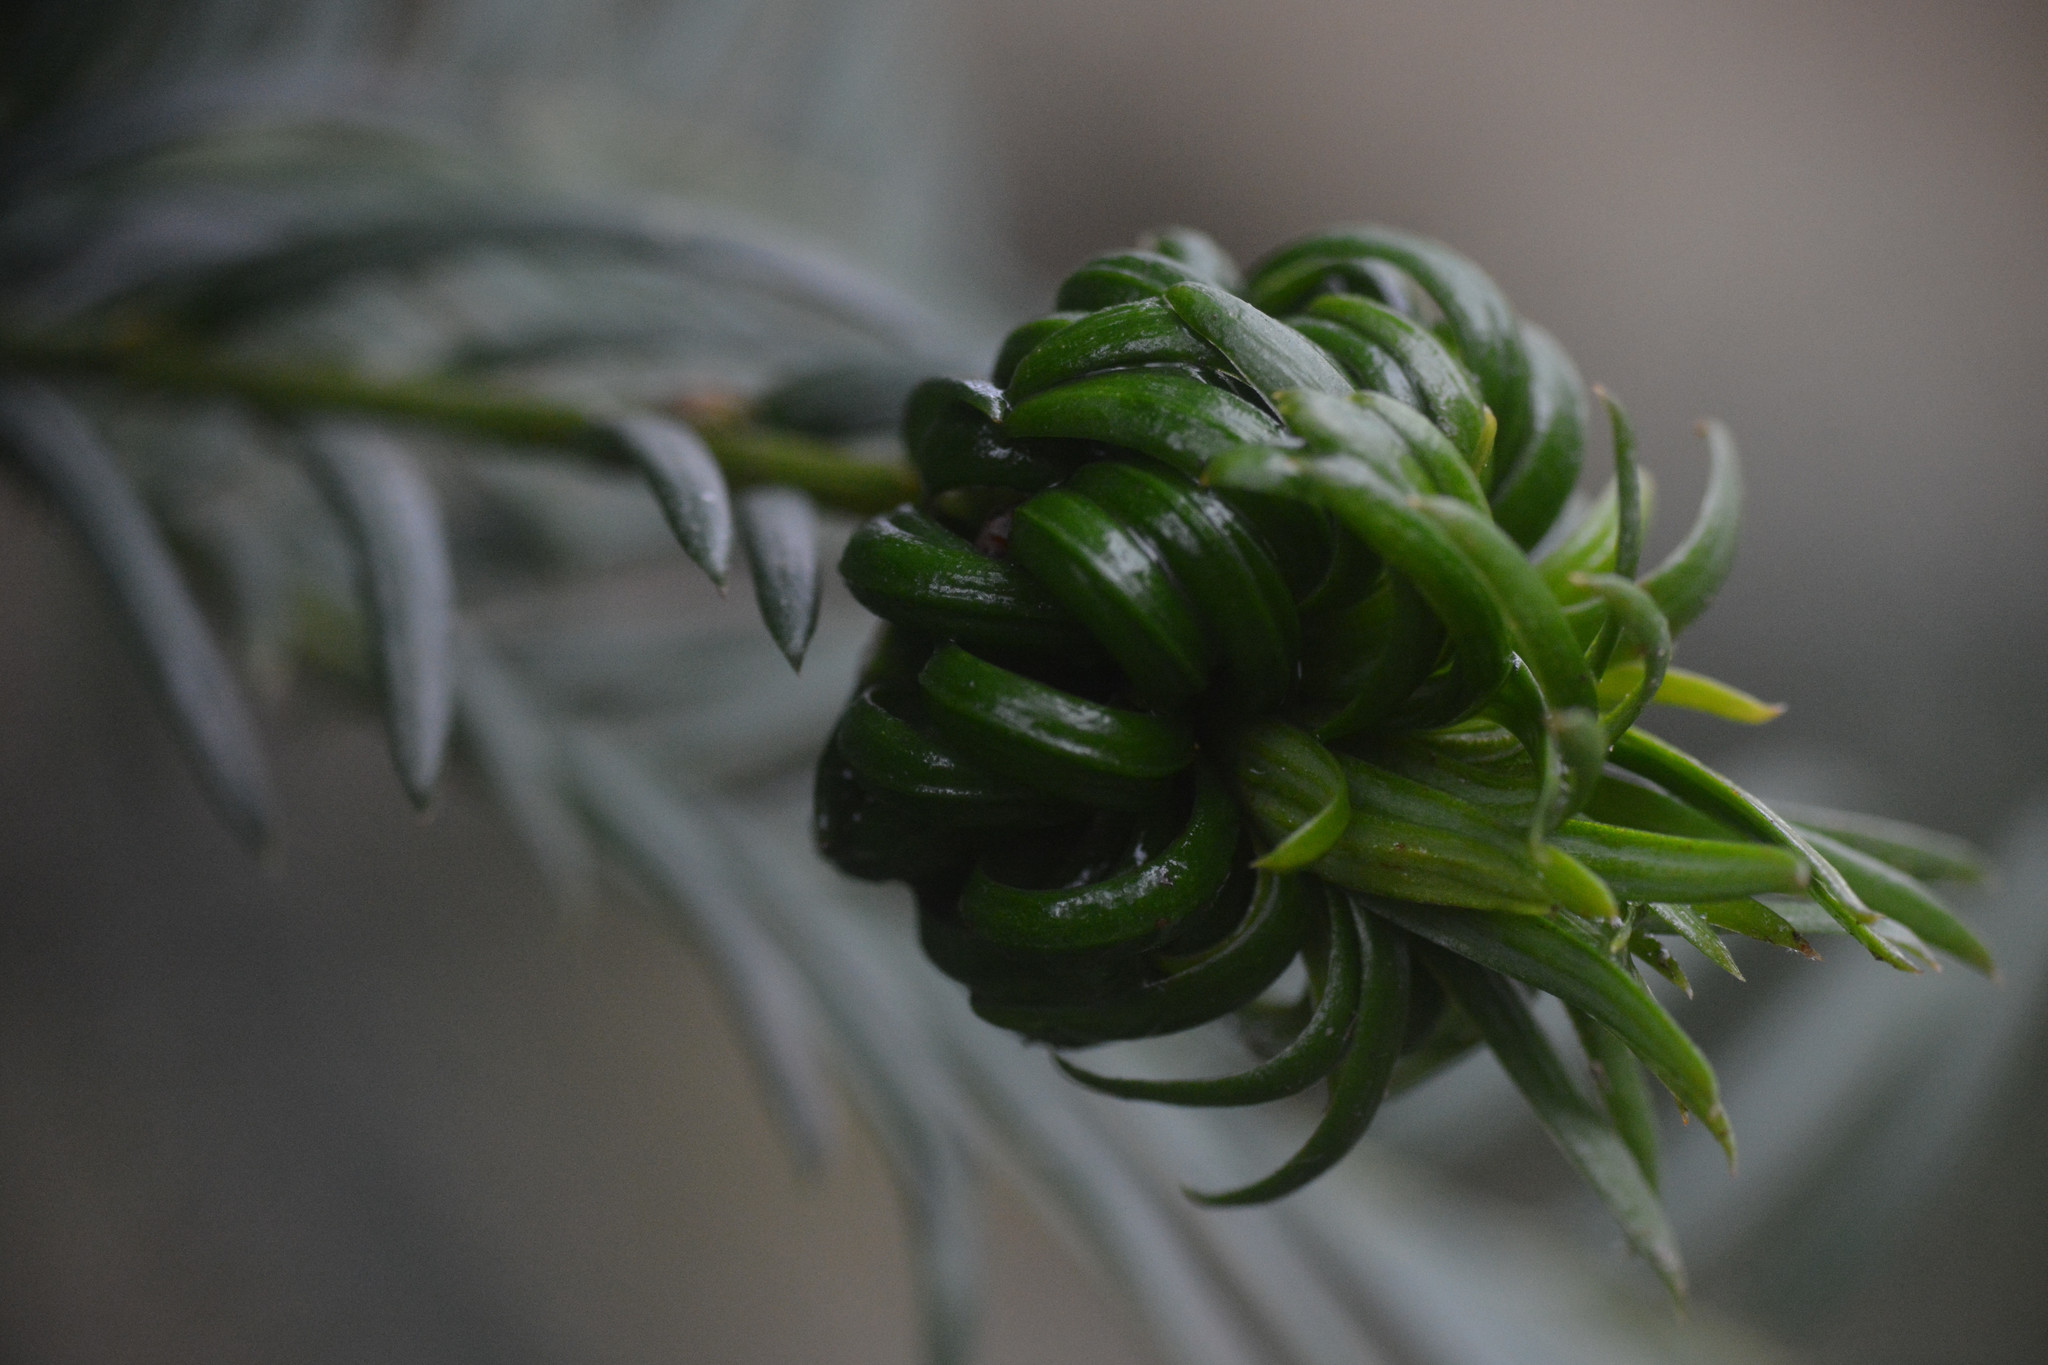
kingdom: Animalia
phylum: Arthropoda
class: Insecta
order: Diptera
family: Cecidomyiidae
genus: Taxomyia
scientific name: Taxomyia taxi
